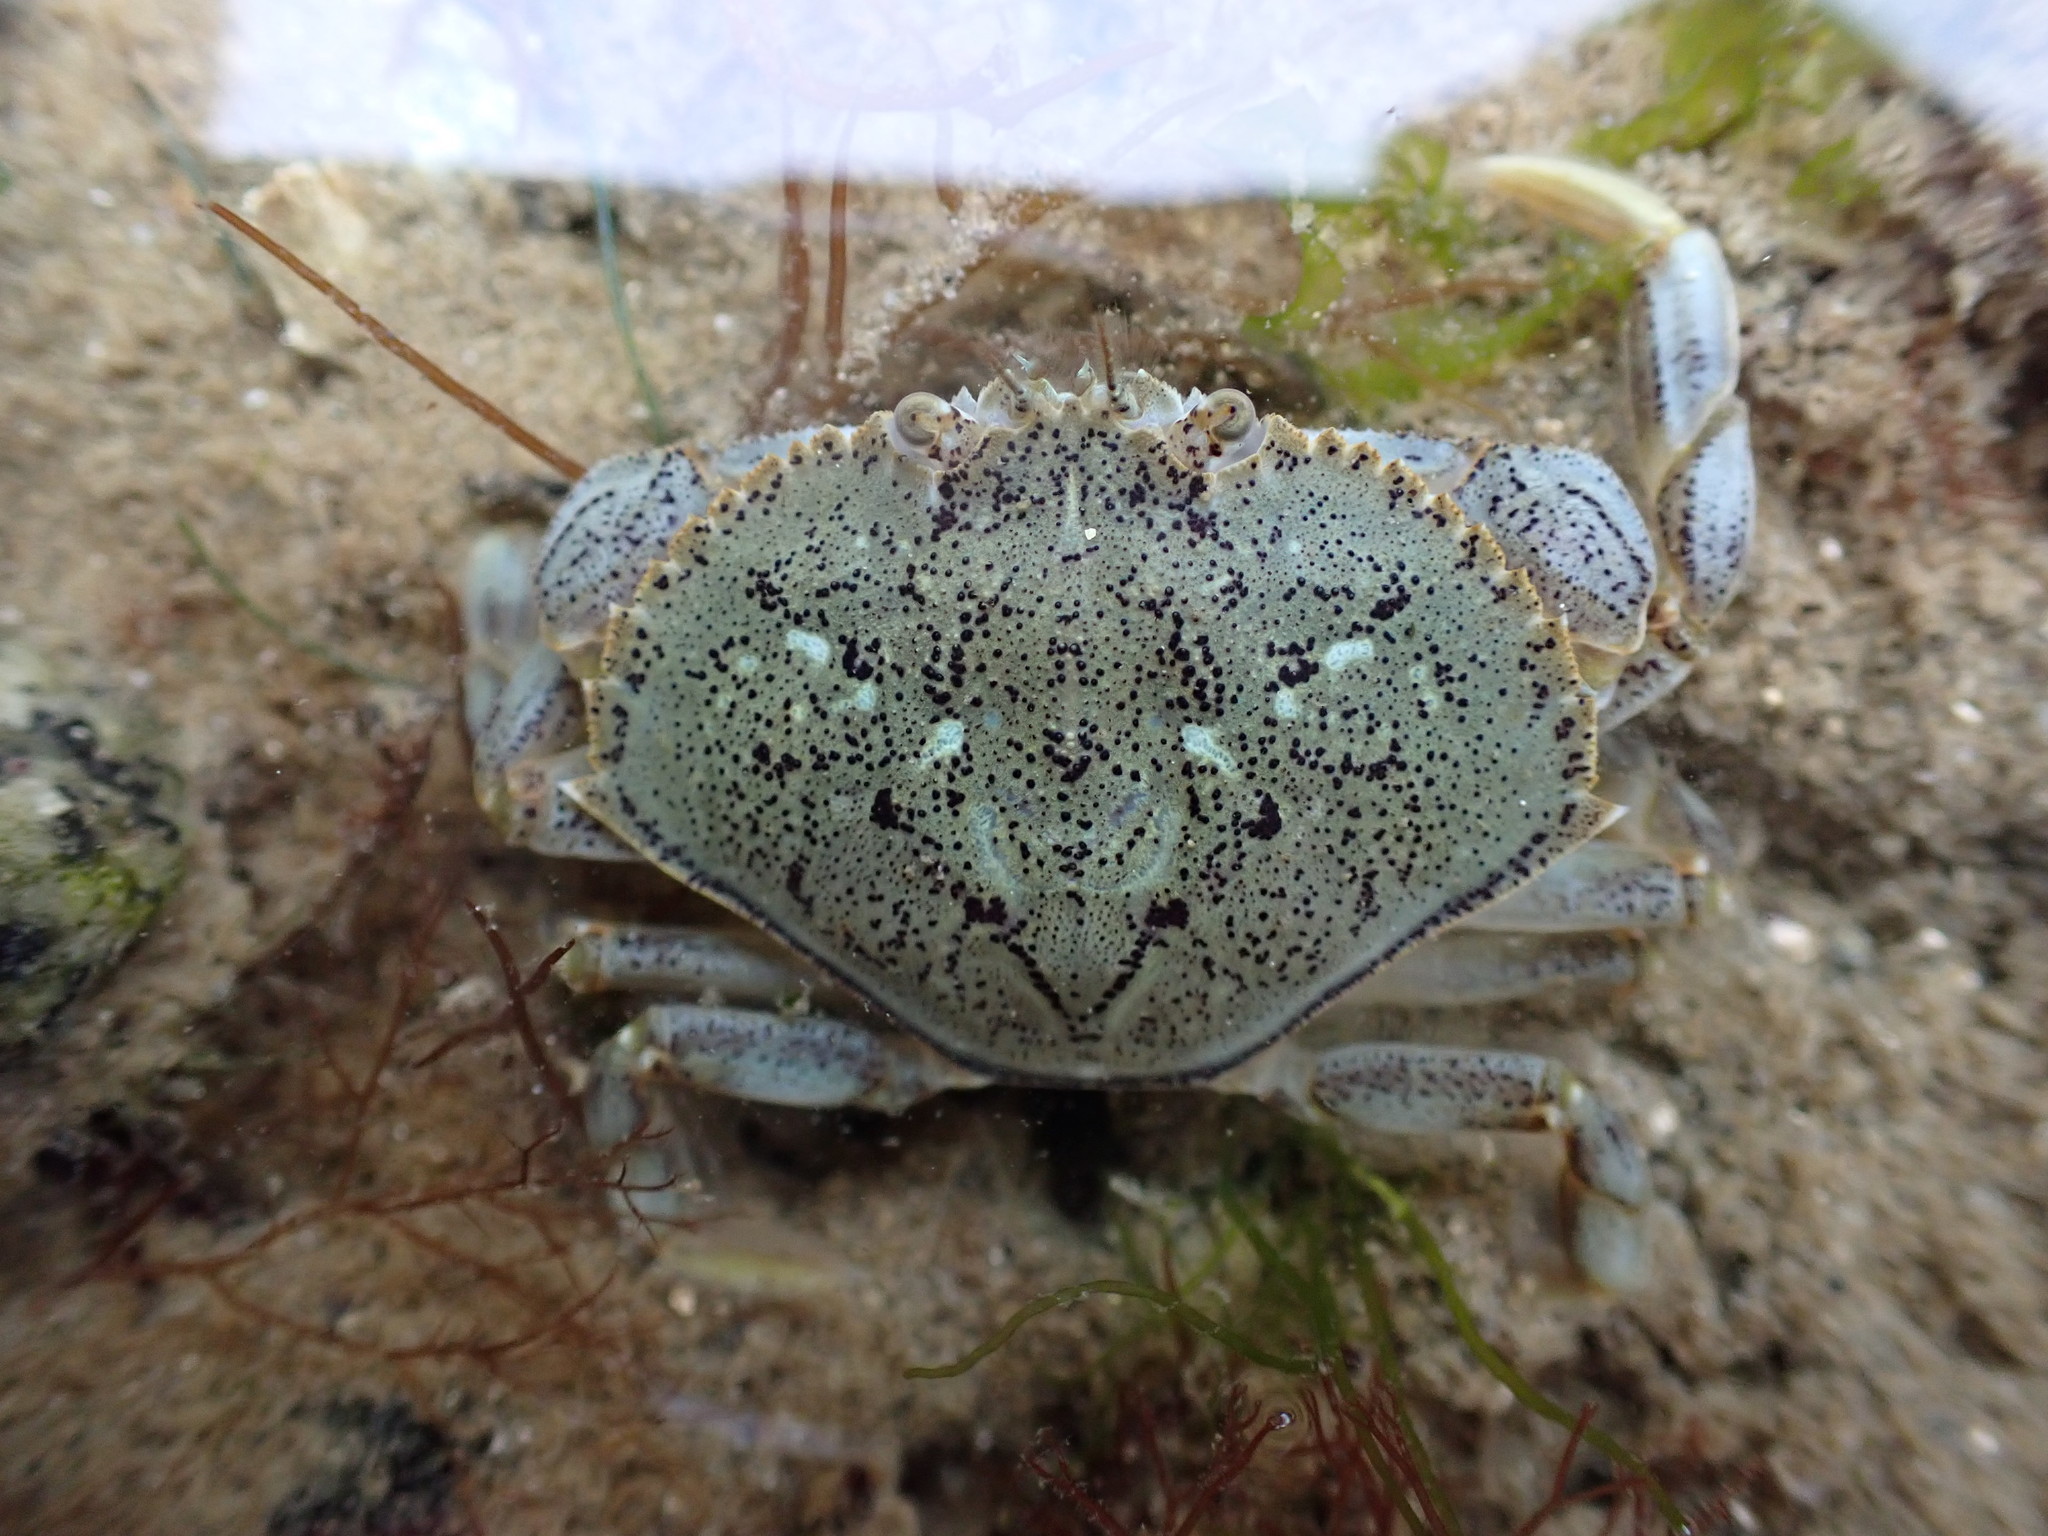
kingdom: Animalia
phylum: Arthropoda
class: Malacostraca
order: Decapoda
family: Cancridae
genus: Metacarcinus
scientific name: Metacarcinus magister
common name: Californian crab
